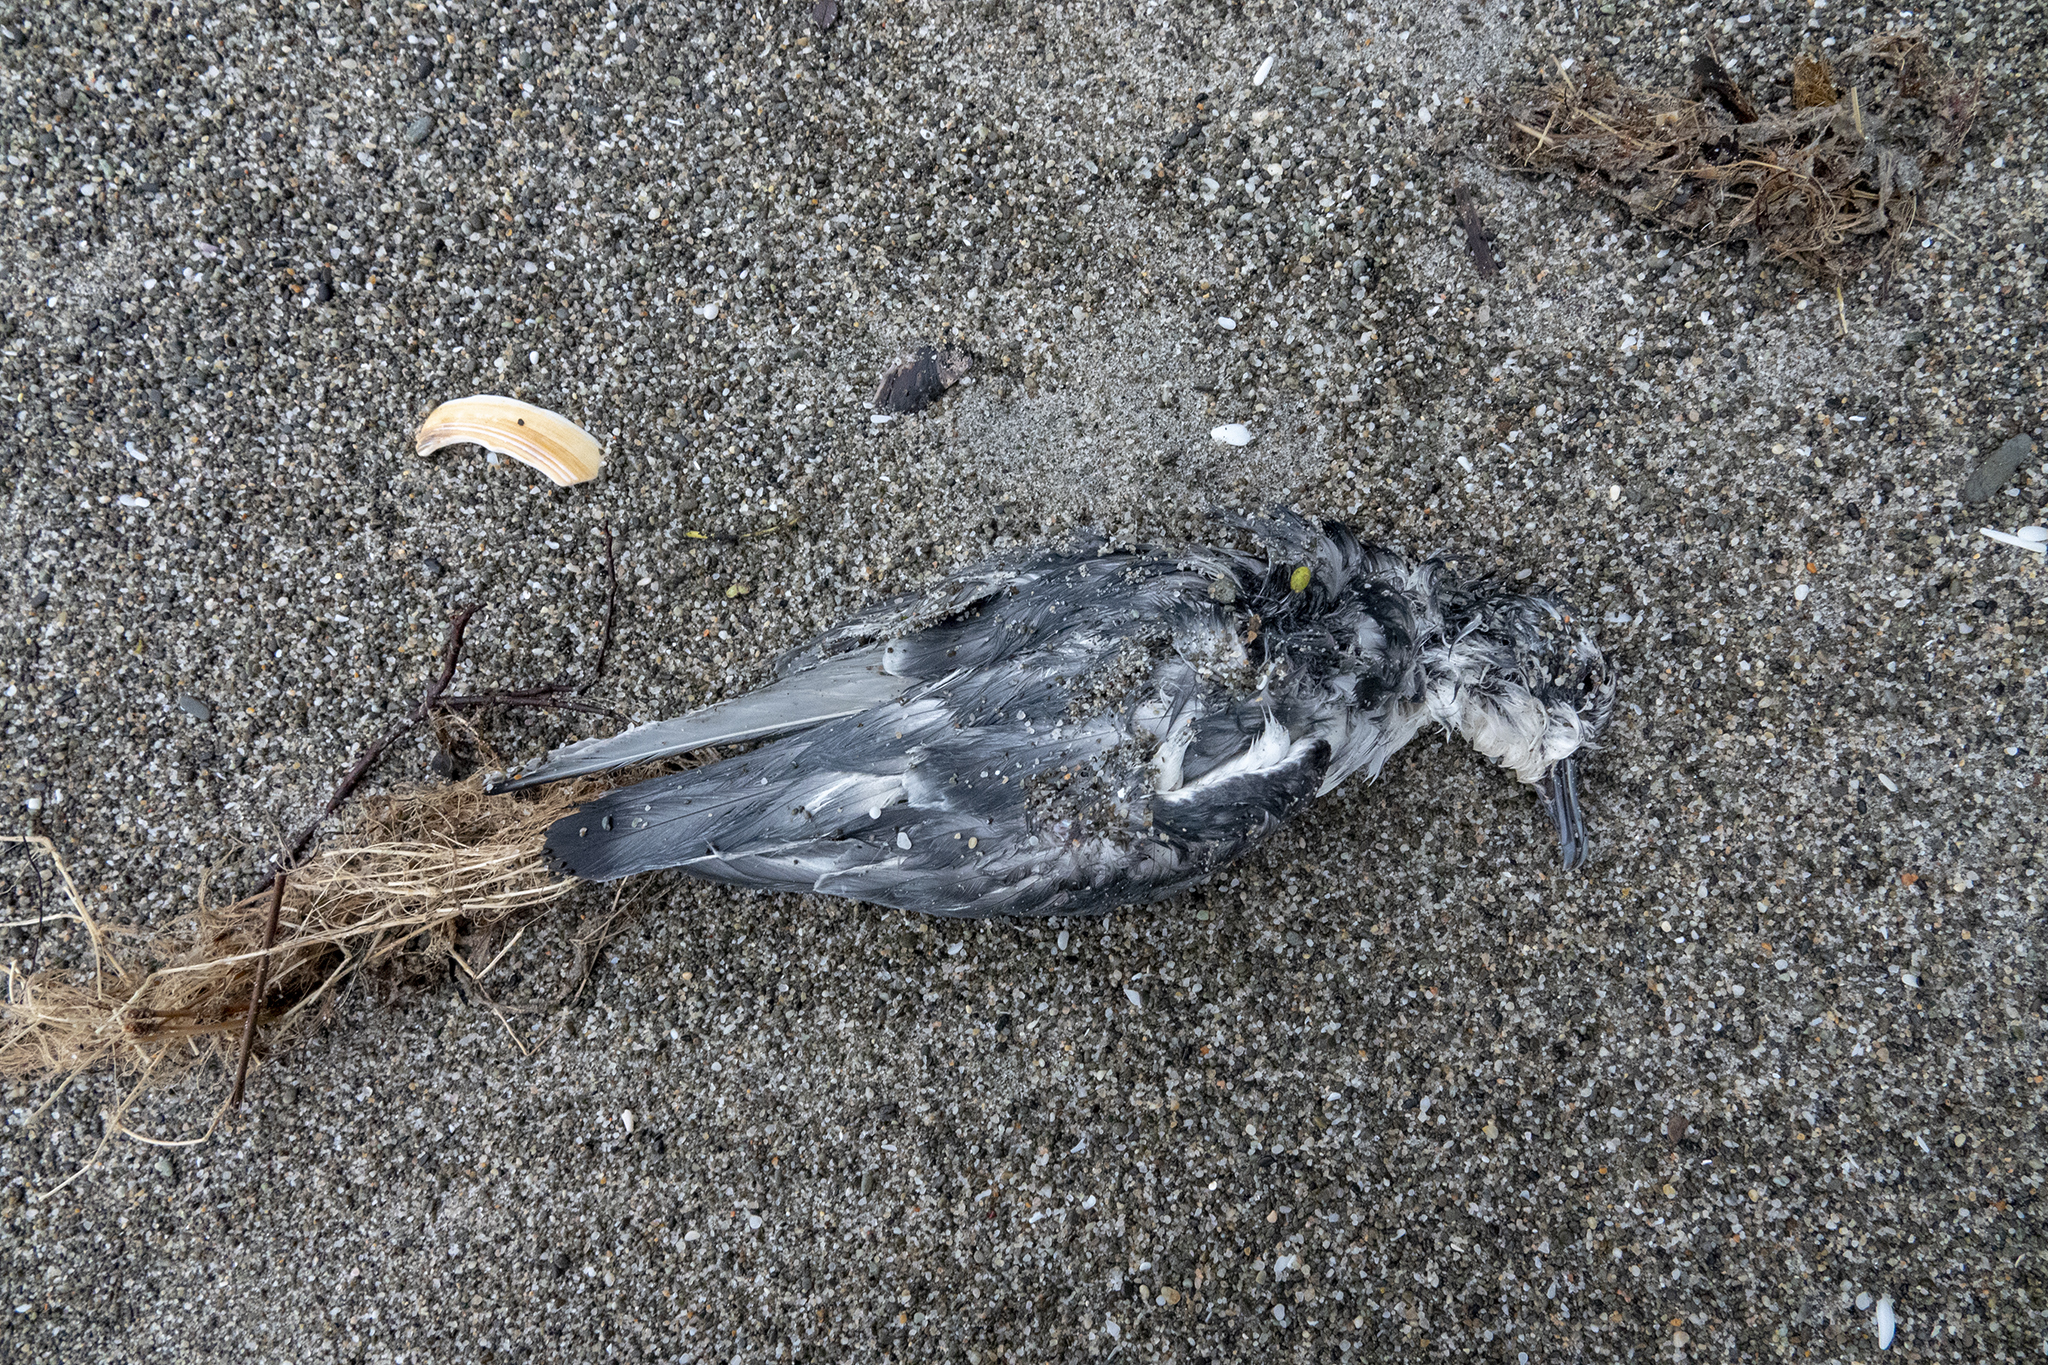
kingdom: Animalia
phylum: Chordata
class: Aves
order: Procellariiformes
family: Procellariidae
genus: Pachyptila
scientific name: Pachyptila belcheri
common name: Slender-billed prion
